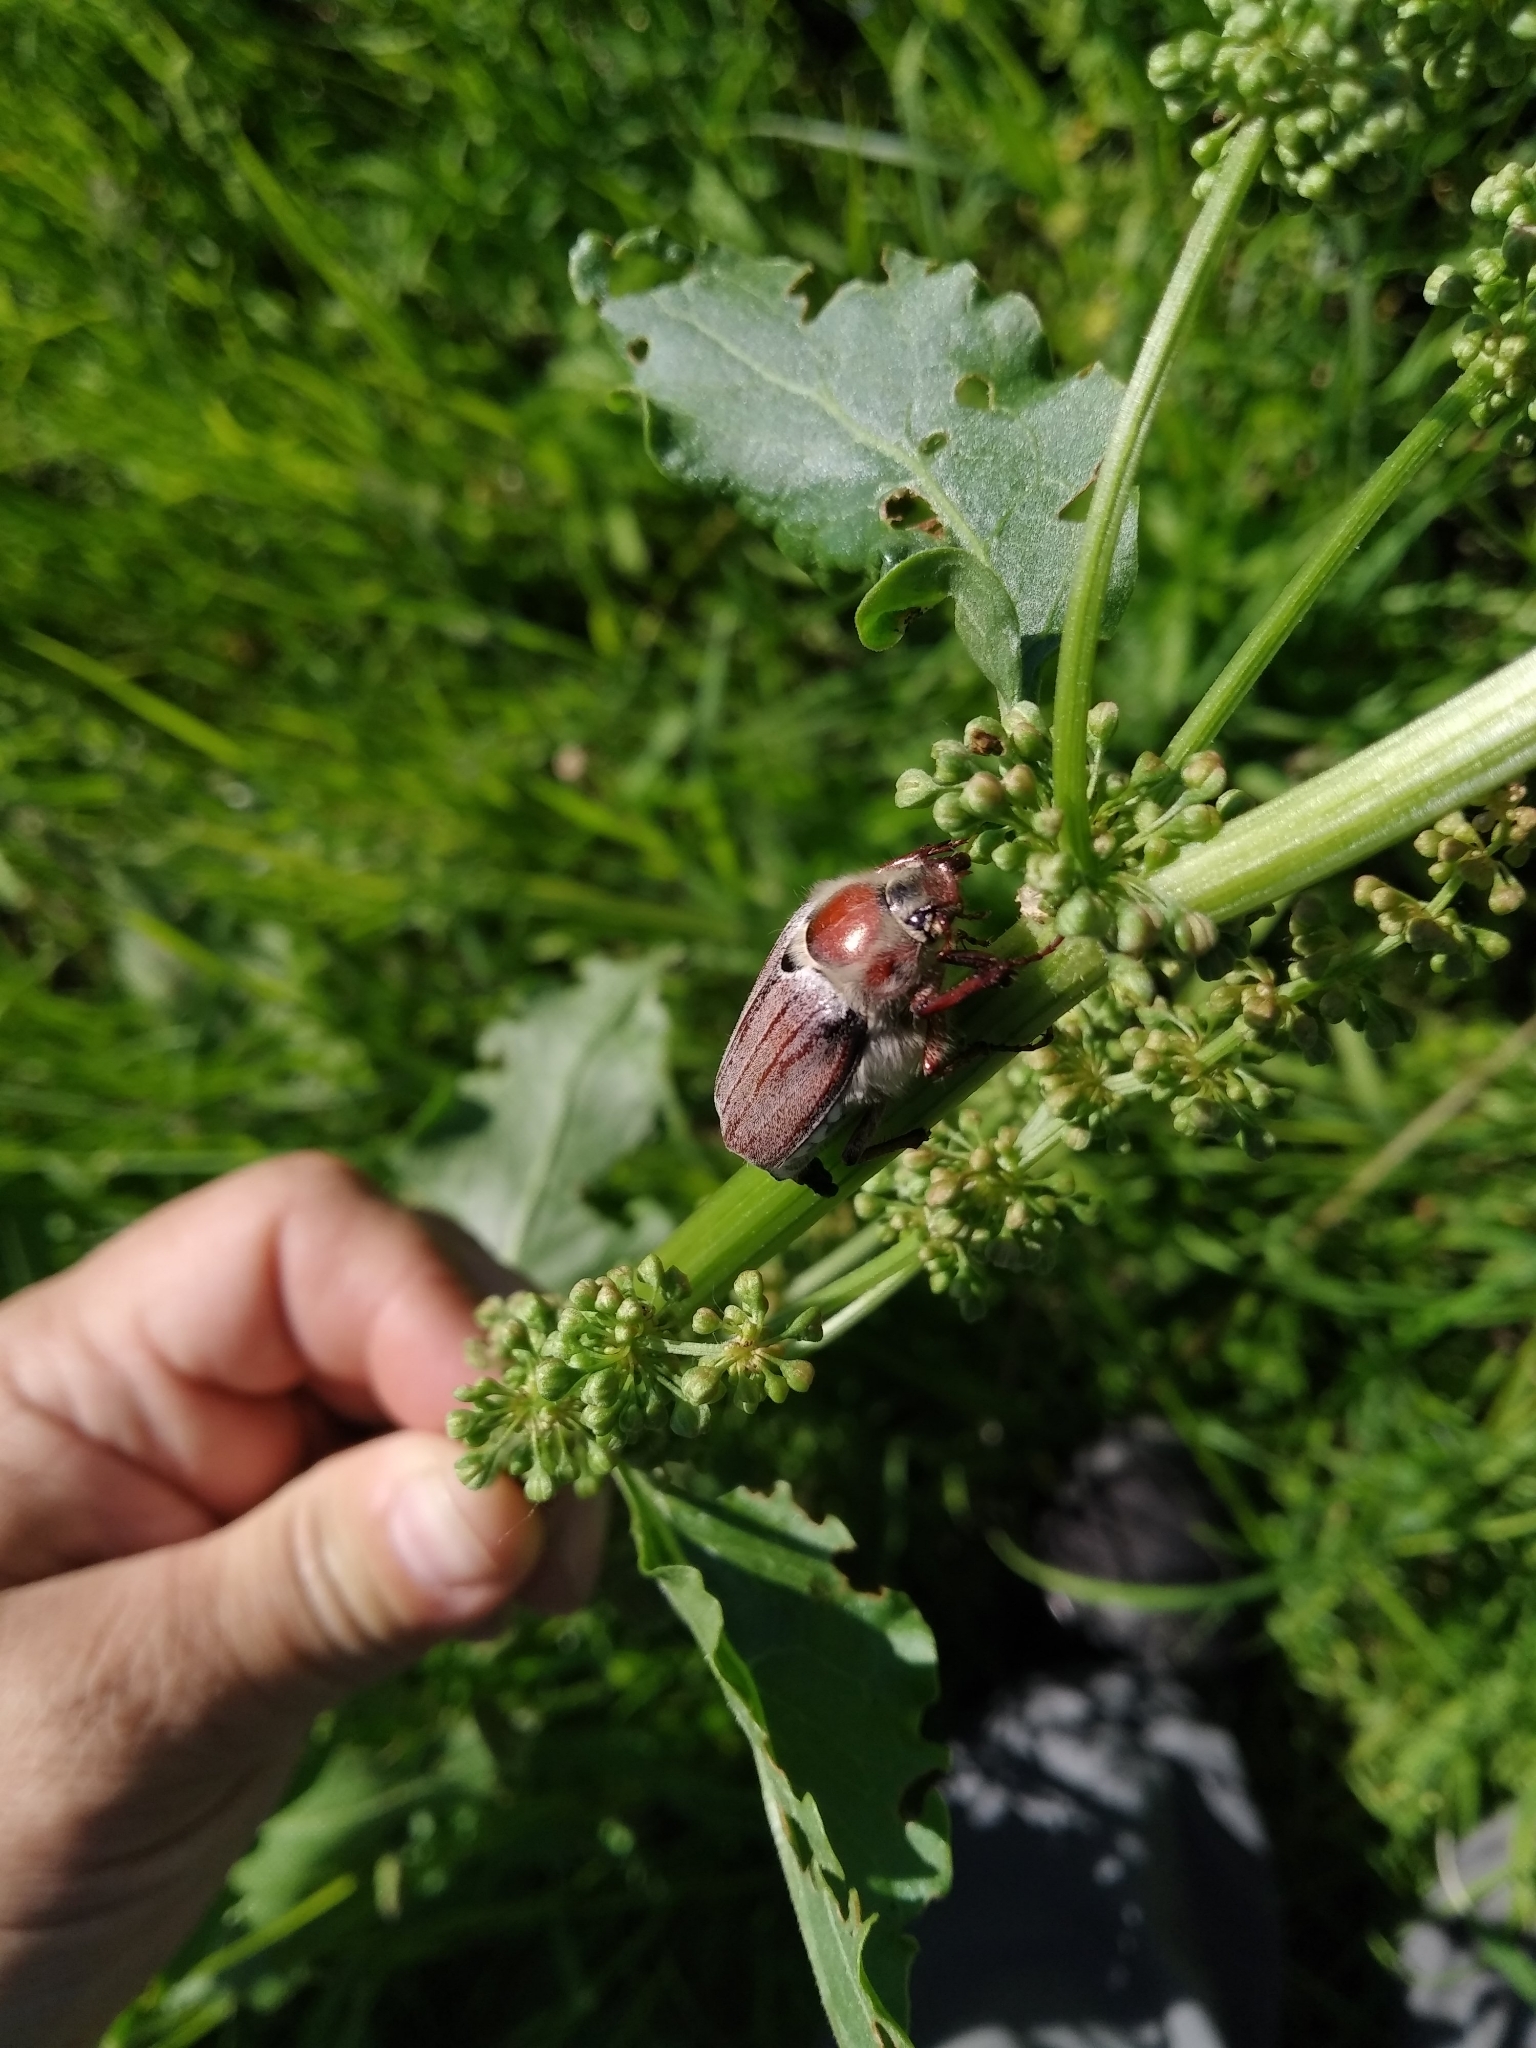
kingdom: Animalia
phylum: Arthropoda
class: Insecta
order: Coleoptera
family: Scarabaeidae
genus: Melolontha
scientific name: Melolontha hippocastani
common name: Chestnut cockchafer
